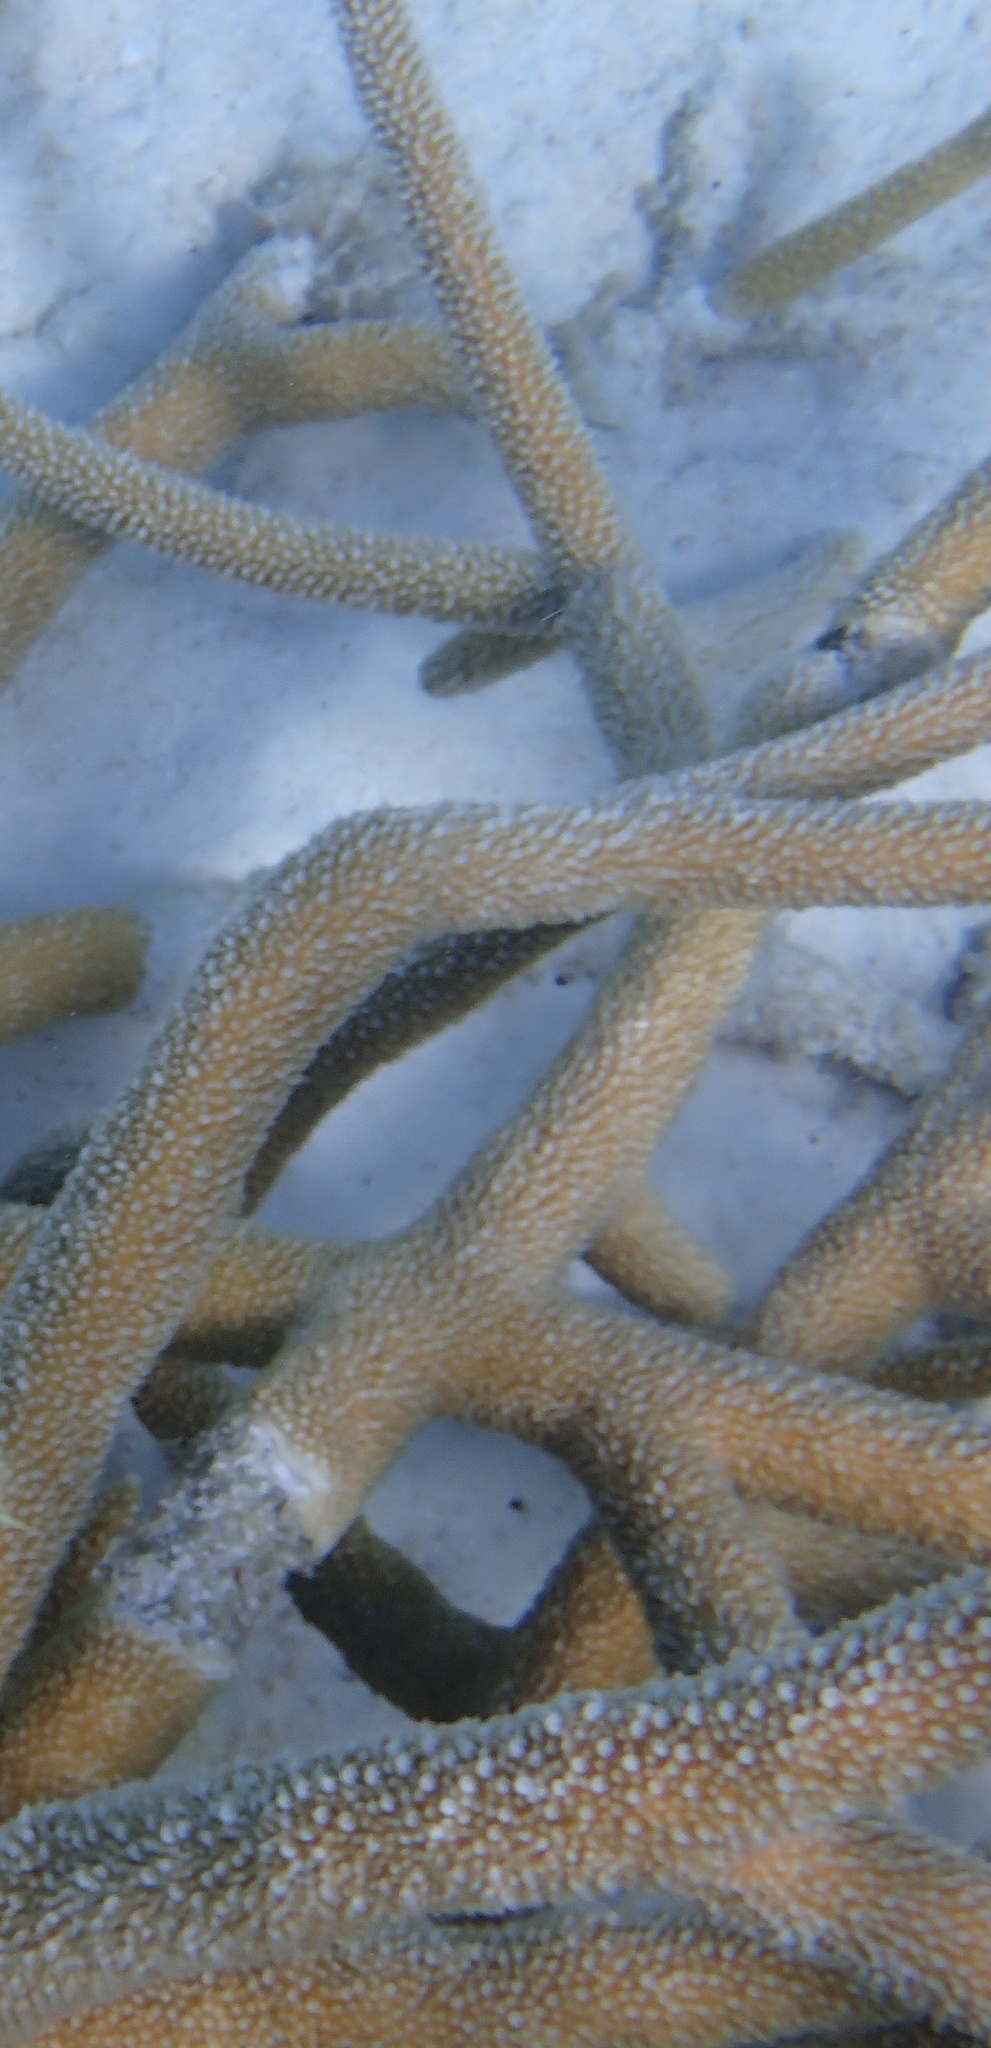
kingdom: Animalia
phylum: Cnidaria
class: Anthozoa
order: Scleractinia
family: Acroporidae
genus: Acropora
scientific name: Acropora cervicornis
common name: Staghorn coral
